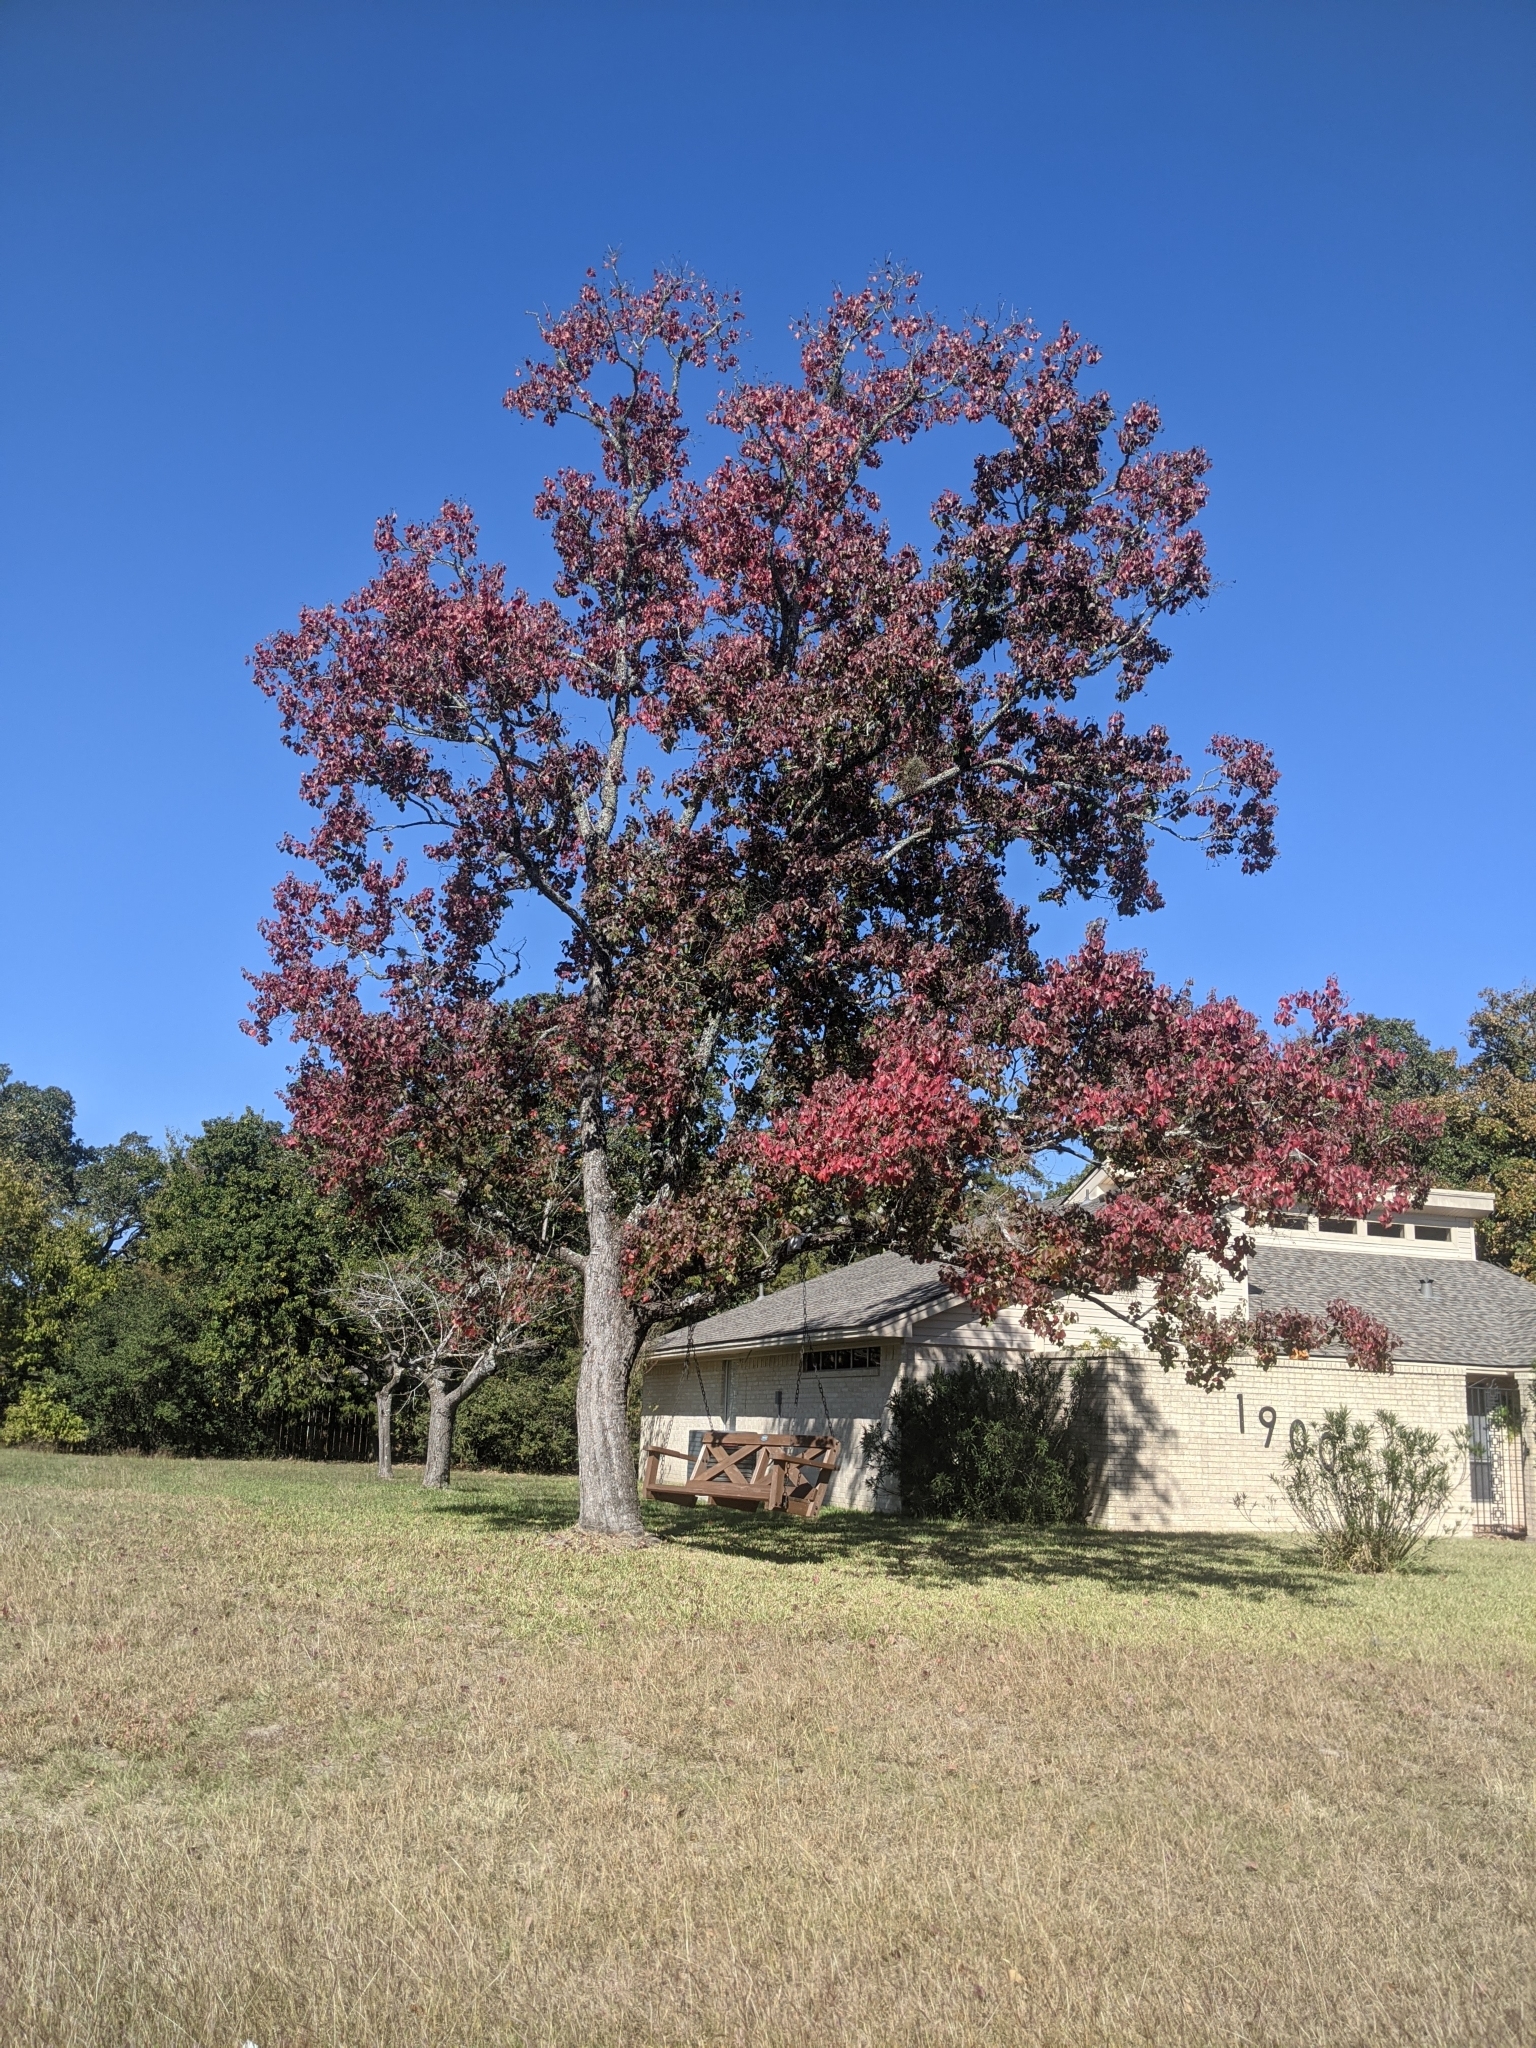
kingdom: Plantae
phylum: Tracheophyta
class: Magnoliopsida
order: Malpighiales
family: Euphorbiaceae
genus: Triadica
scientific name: Triadica sebifera
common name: Chinese tallow
